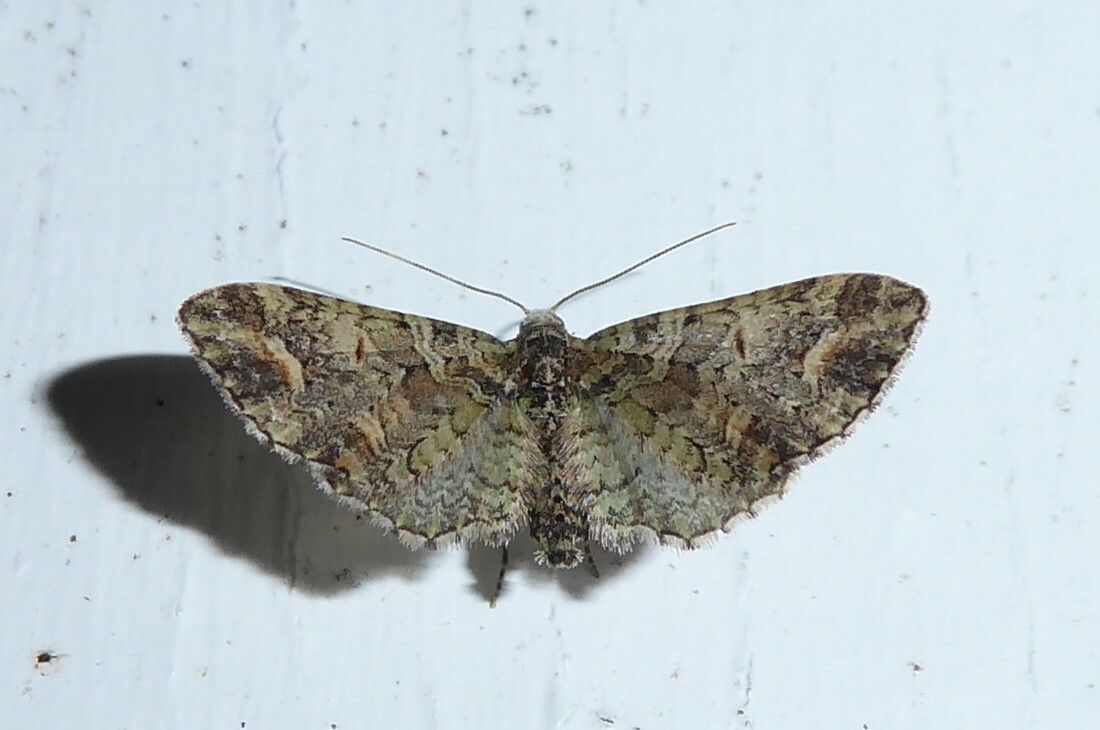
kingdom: Animalia
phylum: Arthropoda
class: Insecta
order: Lepidoptera
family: Geometridae
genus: Idaea
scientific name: Idaea mutanda
